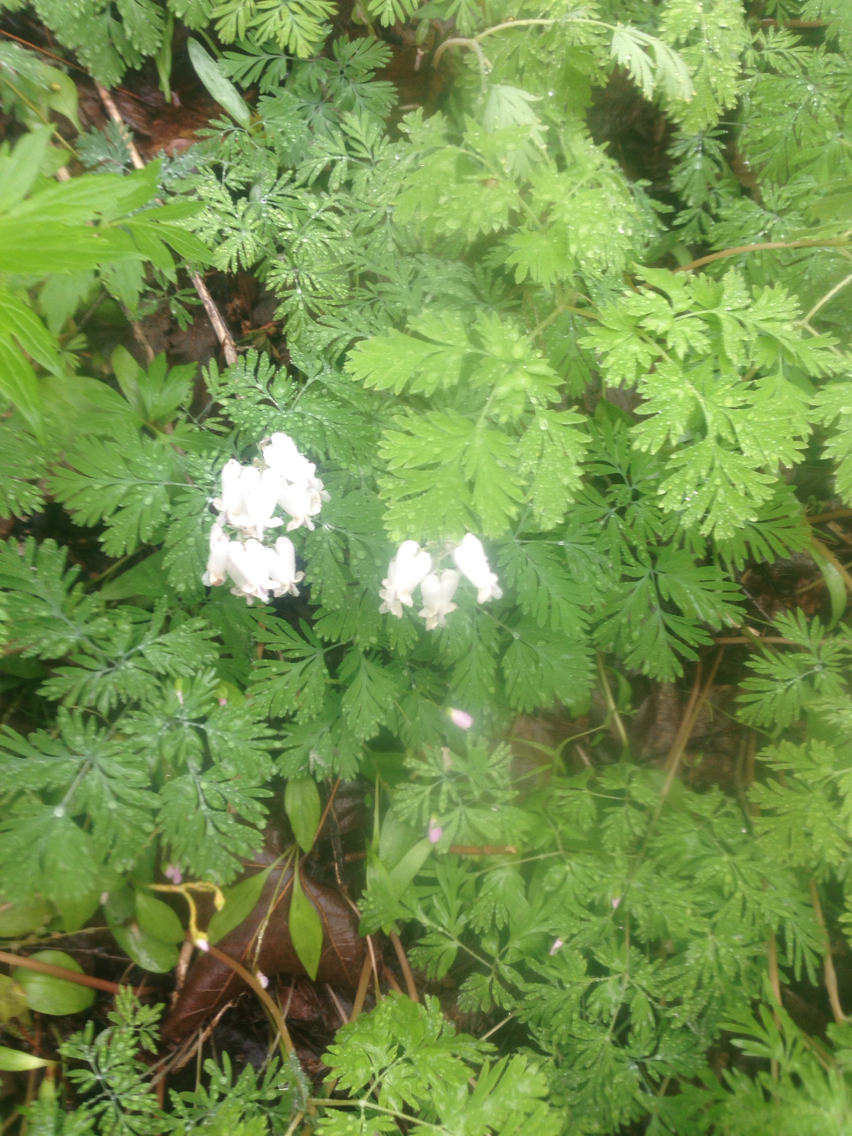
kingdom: Plantae
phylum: Tracheophyta
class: Magnoliopsida
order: Ranunculales
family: Papaveraceae
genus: Dicentra
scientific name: Dicentra canadensis
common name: Squirrel-corn
